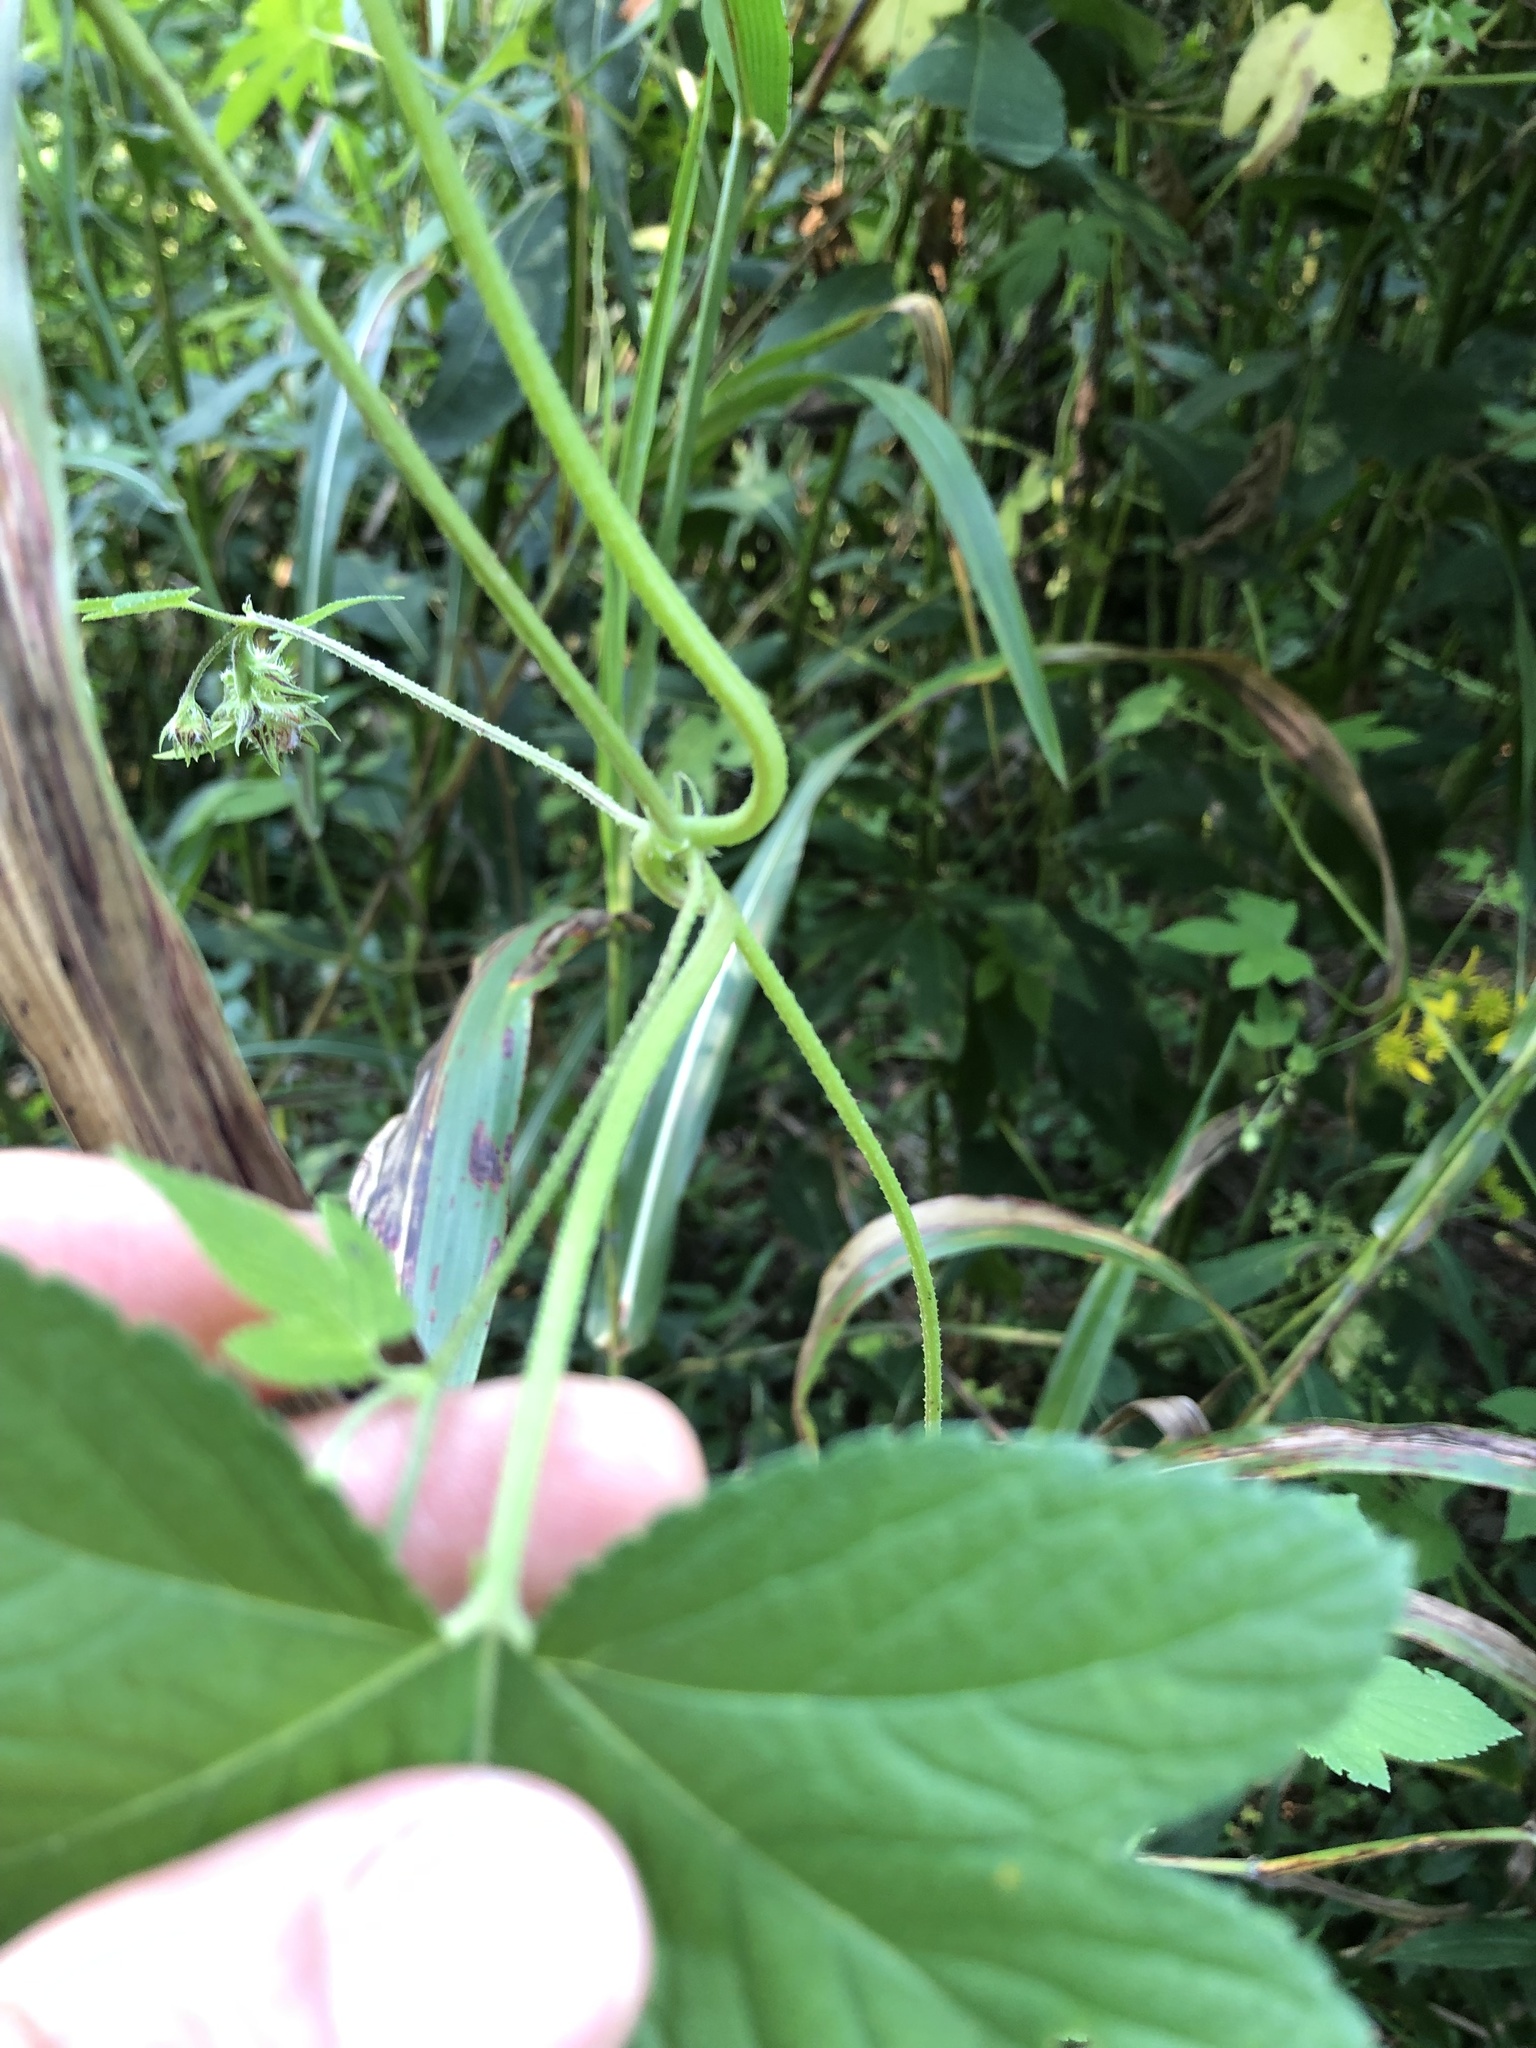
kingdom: Plantae
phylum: Tracheophyta
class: Magnoliopsida
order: Rosales
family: Cannabaceae
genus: Humulus
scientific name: Humulus scandens
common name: Japanese hop
